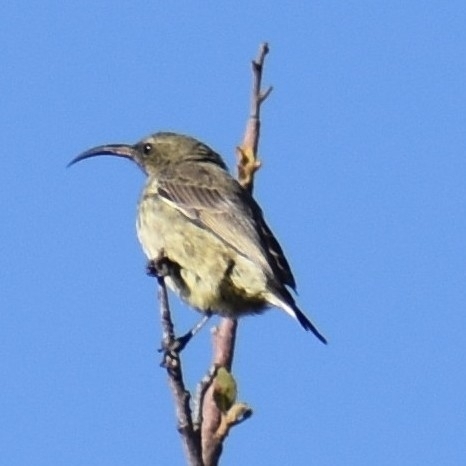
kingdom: Animalia
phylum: Chordata
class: Aves
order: Passeriformes
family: Nectariniidae
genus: Chalcomitra
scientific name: Chalcomitra amethystina
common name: Amethyst sunbird
